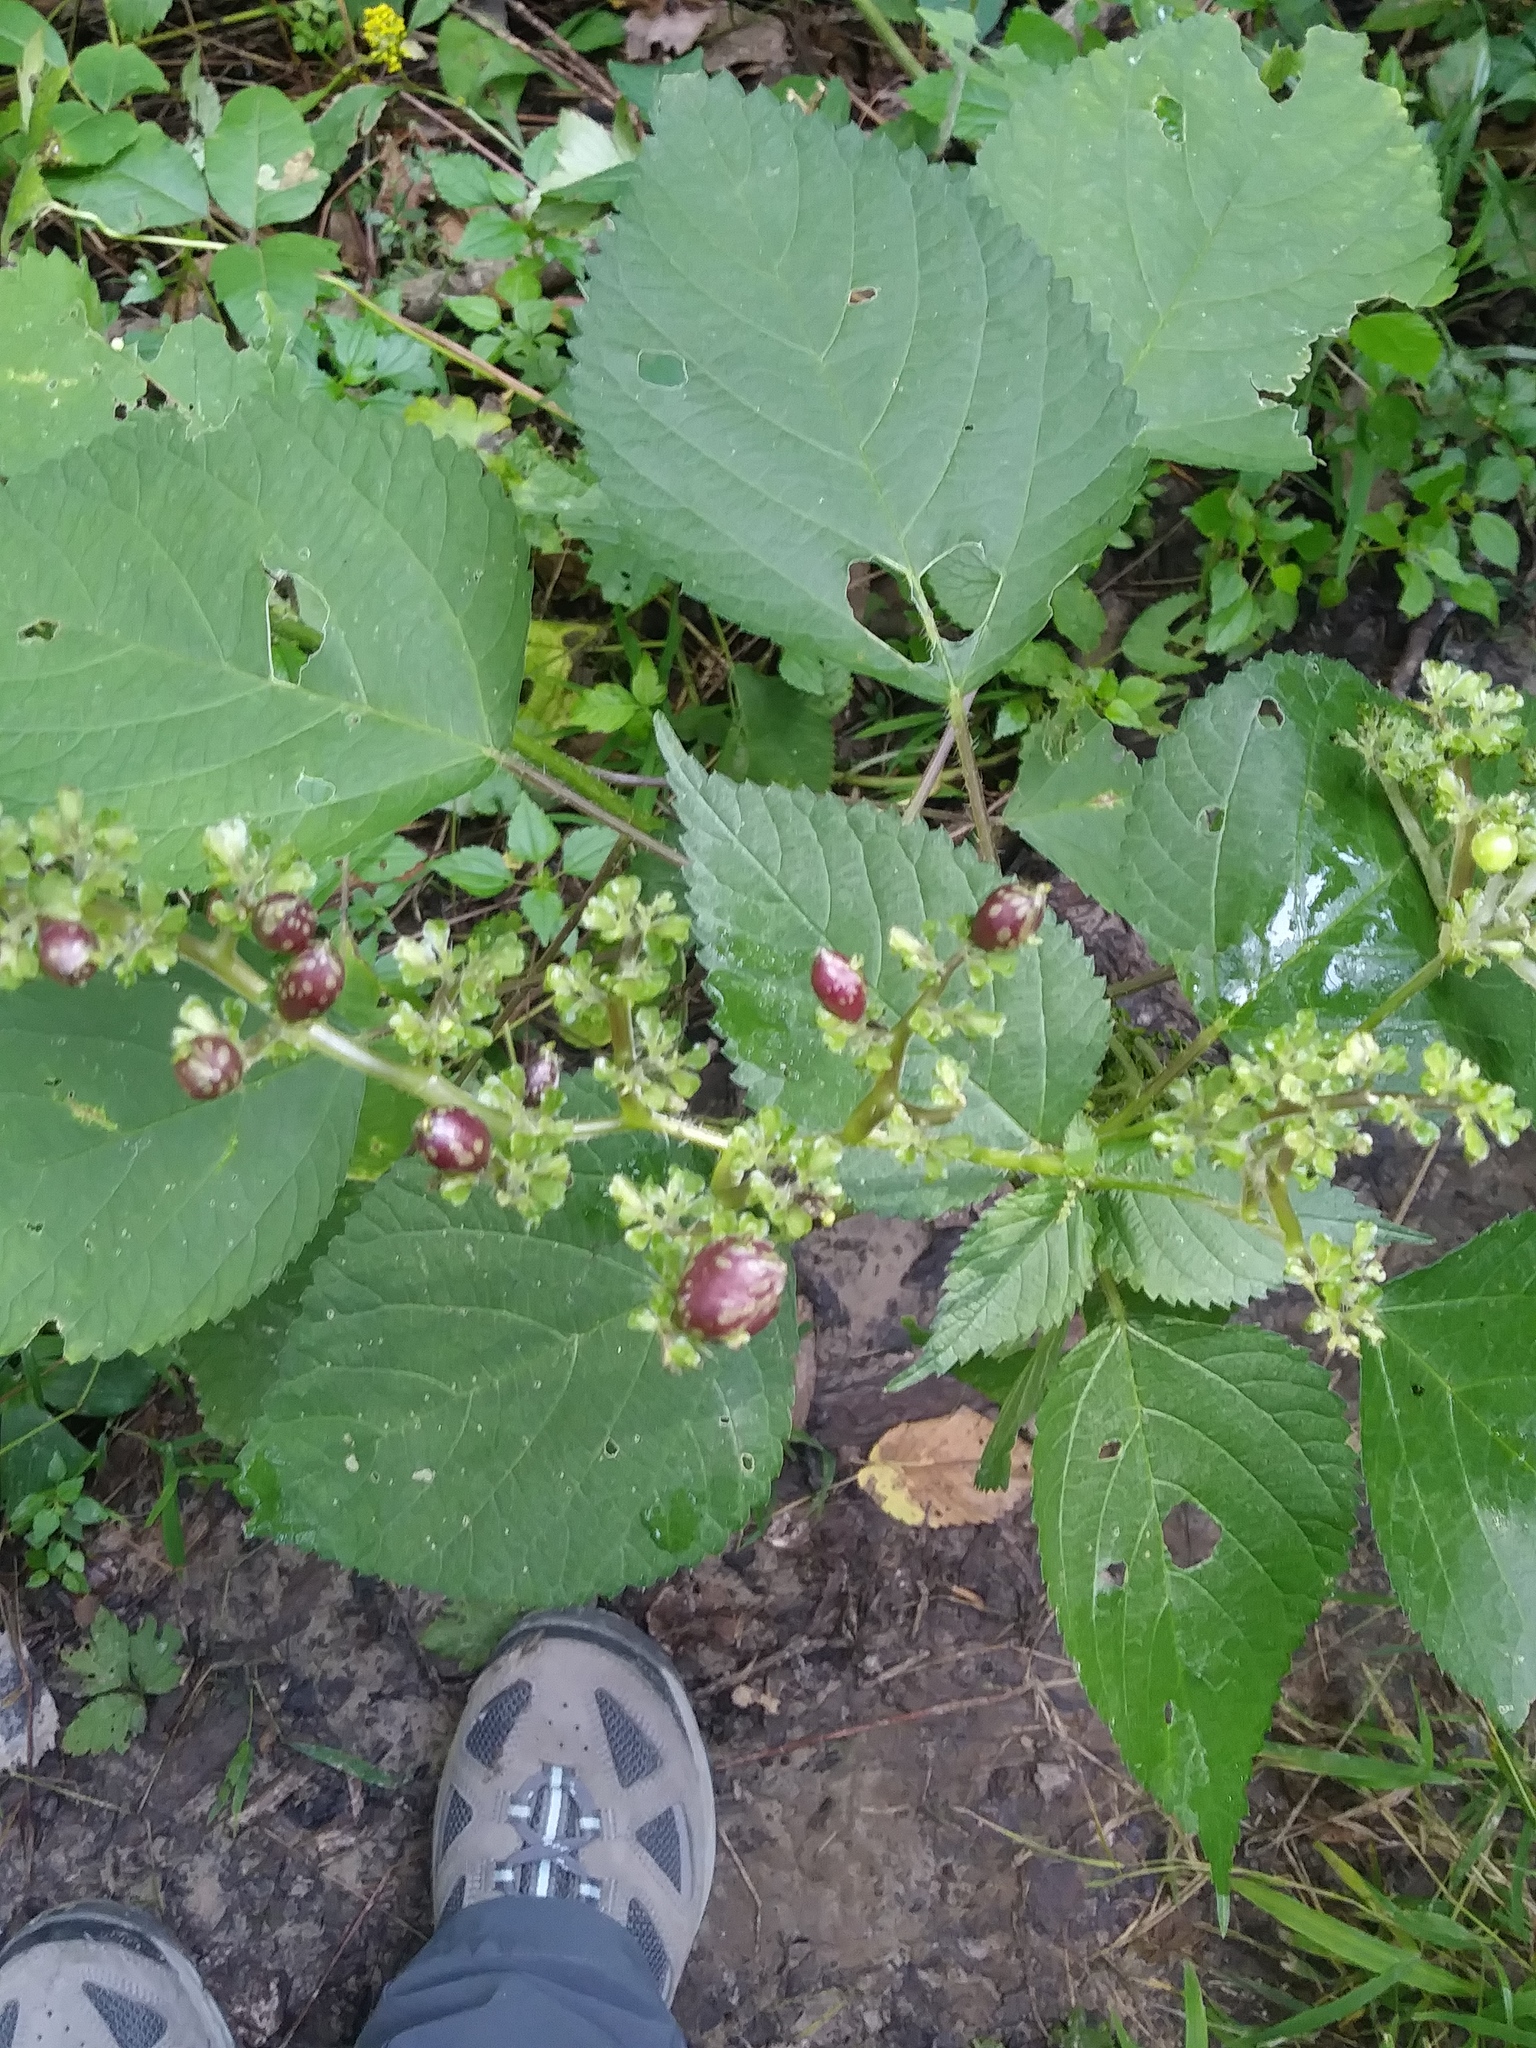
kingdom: Plantae
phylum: Tracheophyta
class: Magnoliopsida
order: Rosales
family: Urticaceae
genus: Laportea
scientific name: Laportea canadensis
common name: Canada nettle
